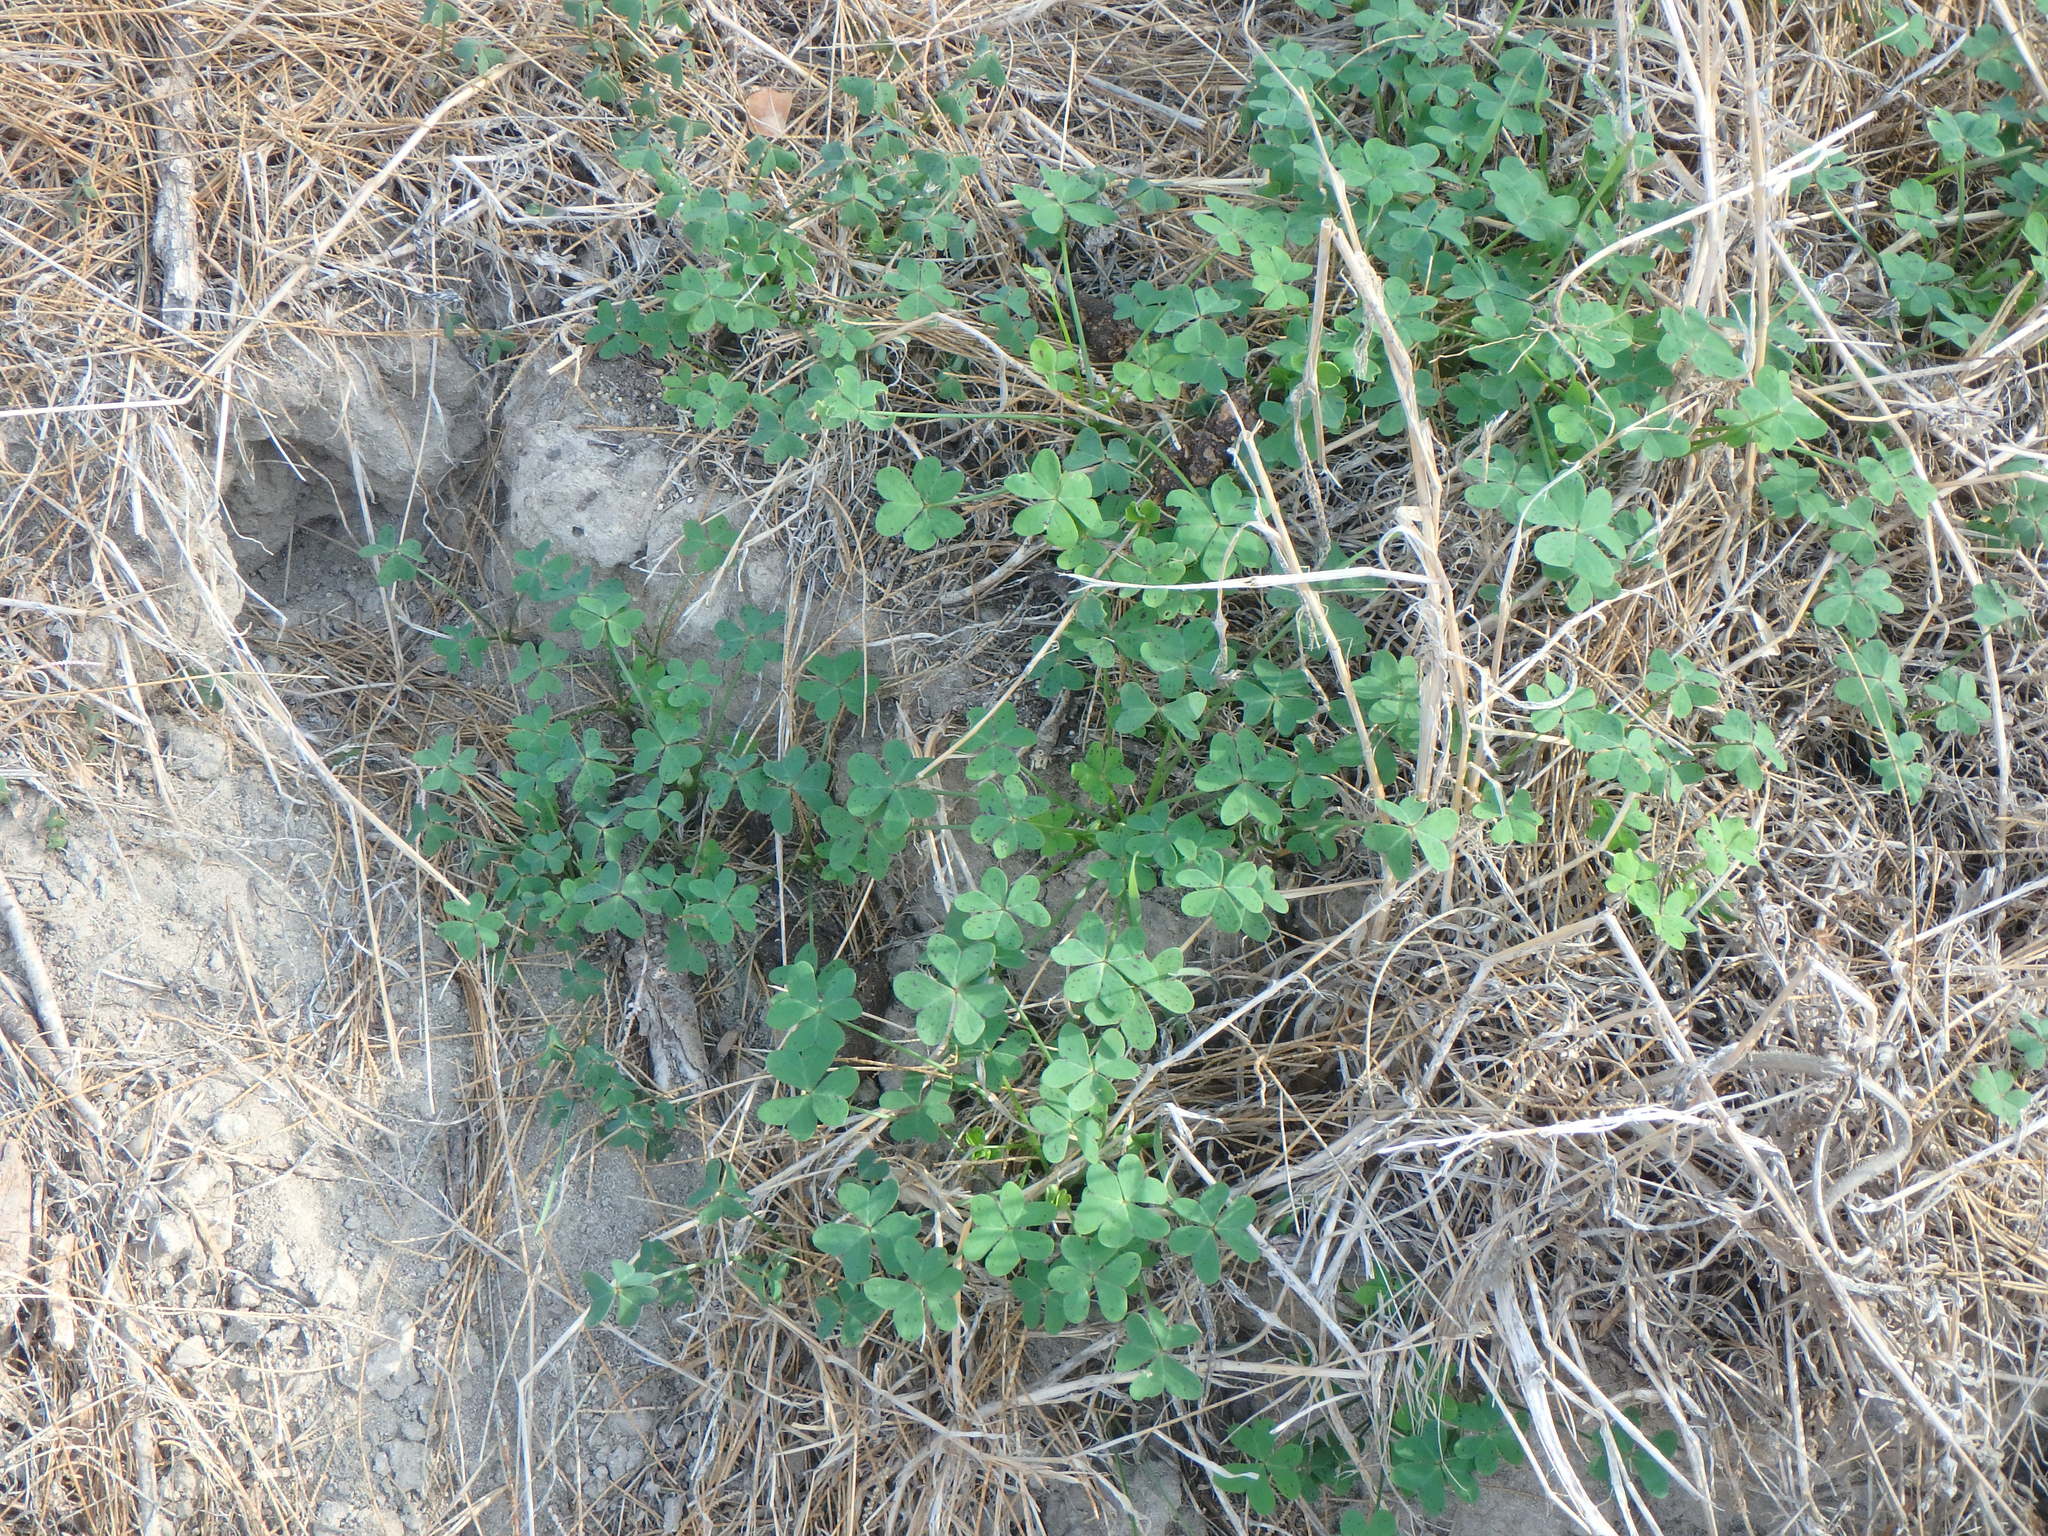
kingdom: Plantae
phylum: Tracheophyta
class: Magnoliopsida
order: Oxalidales
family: Oxalidaceae
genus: Oxalis
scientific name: Oxalis pes-caprae
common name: Bermuda-buttercup
